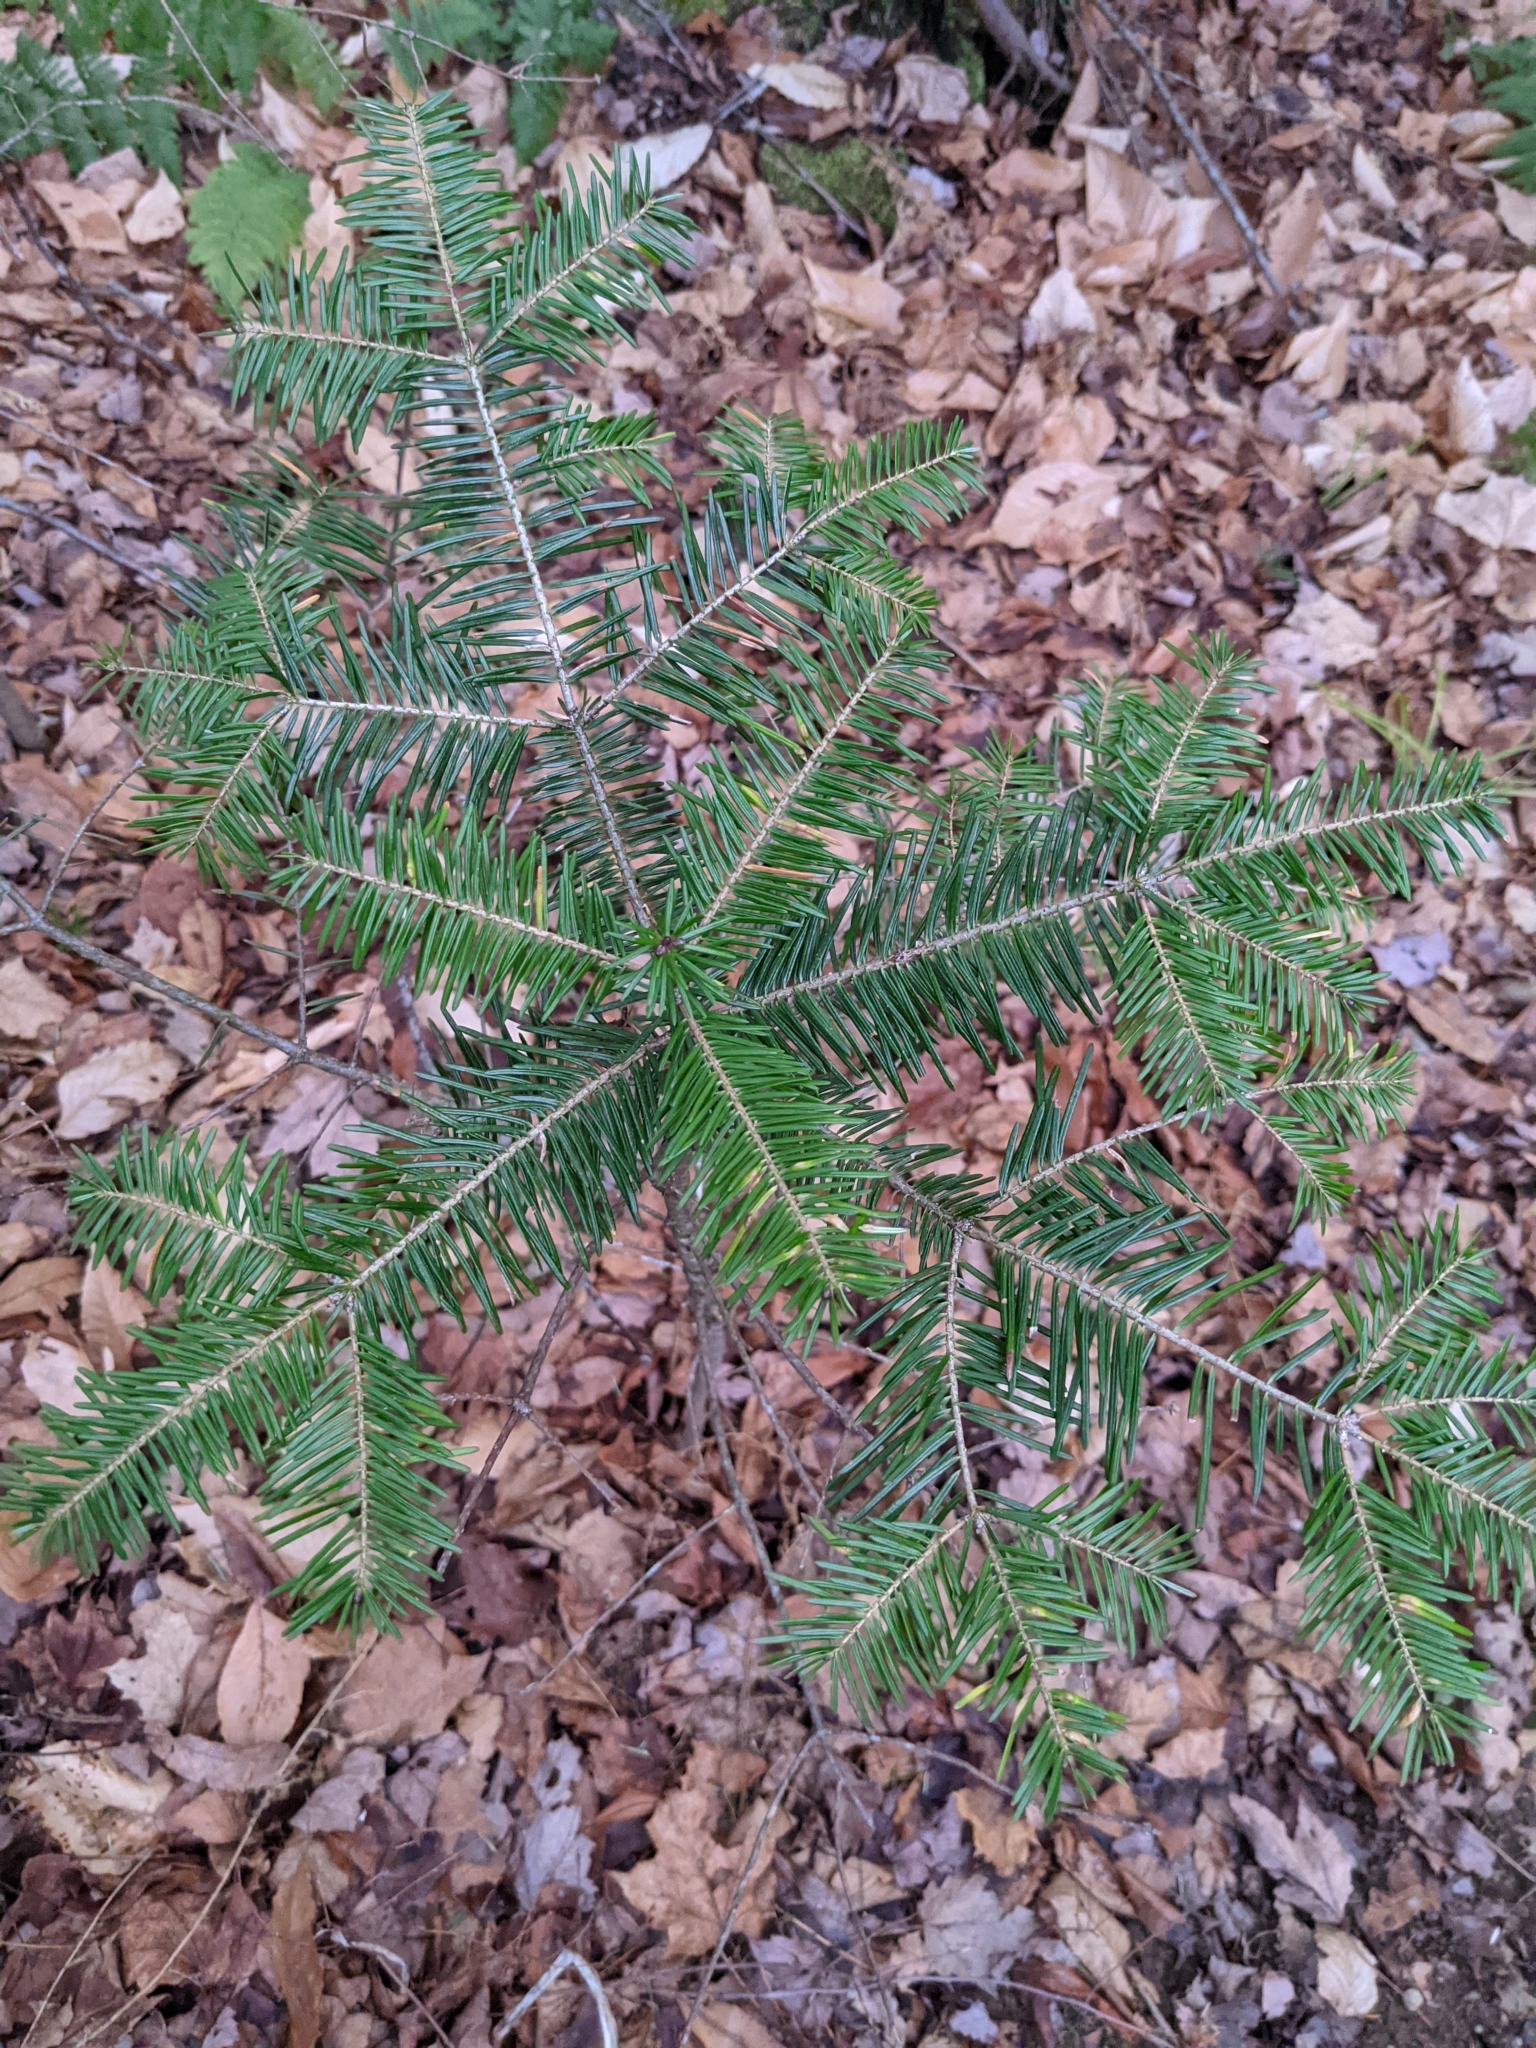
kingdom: Plantae
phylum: Tracheophyta
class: Pinopsida
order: Pinales
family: Pinaceae
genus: Abies
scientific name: Abies balsamea
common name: Balsam fir
